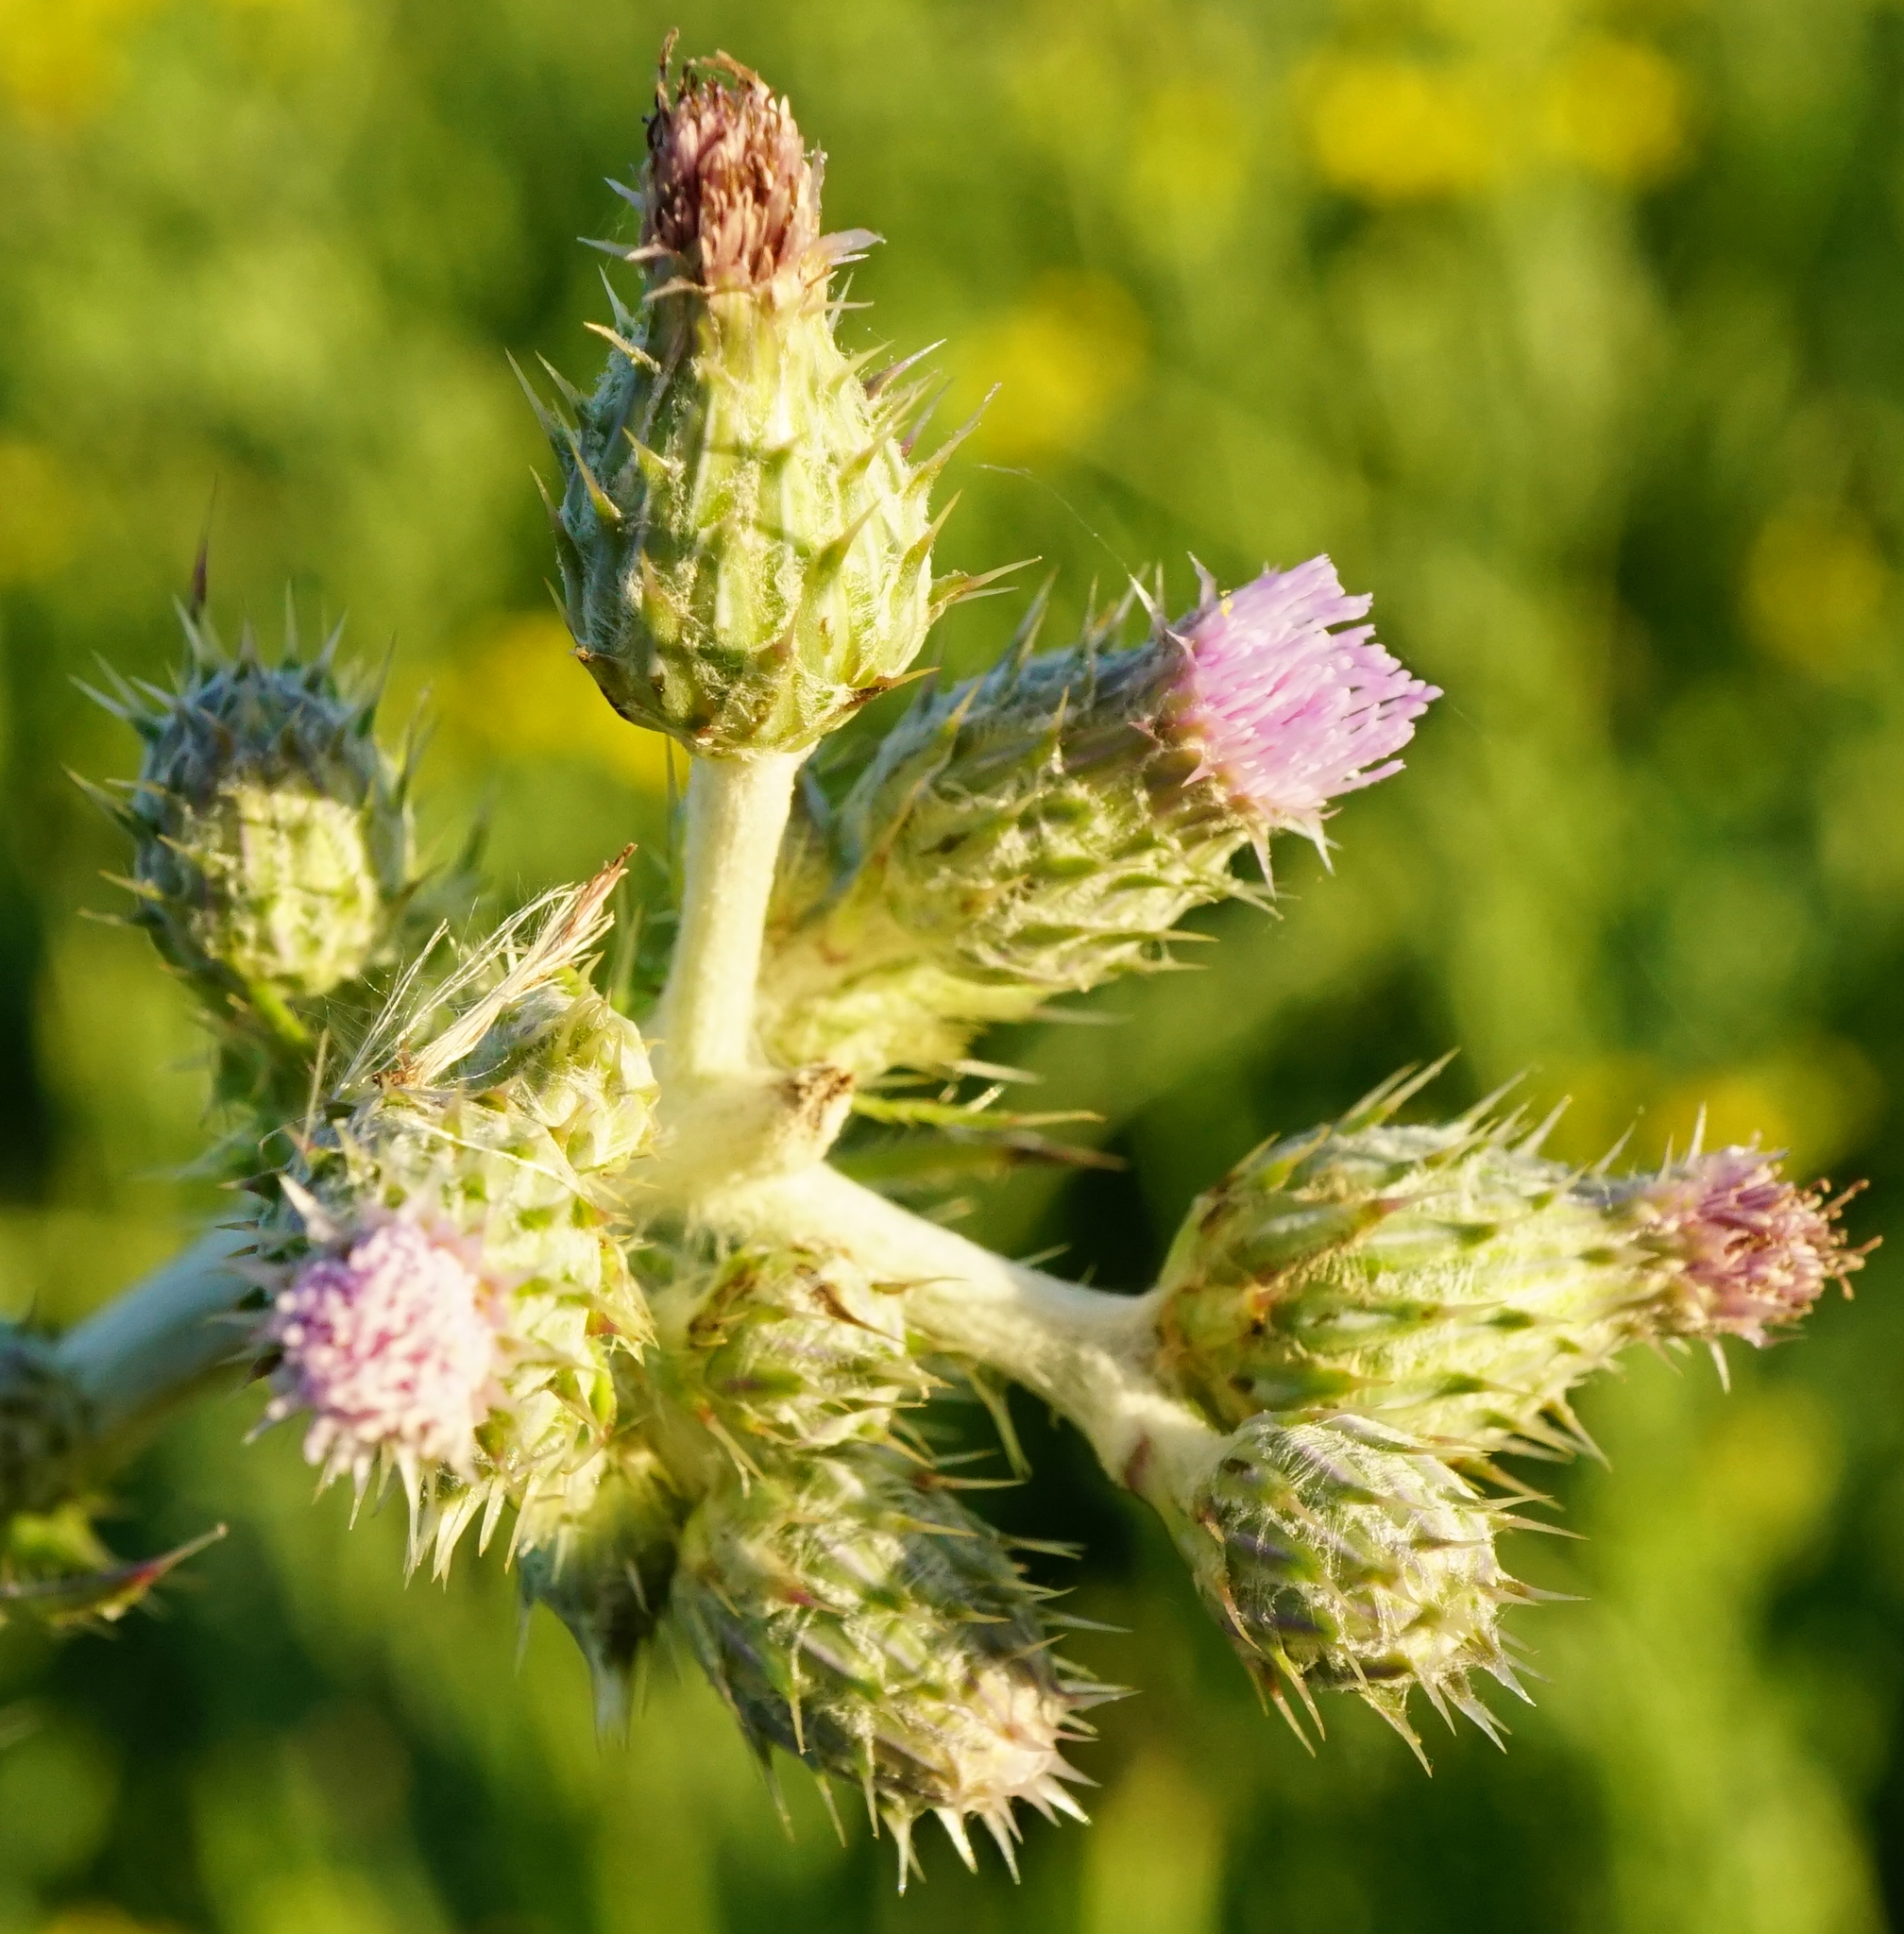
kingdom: Plantae
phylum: Tracheophyta
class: Magnoliopsida
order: Asterales
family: Asteraceae
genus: Cirsium
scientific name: Cirsium brachycephalum
